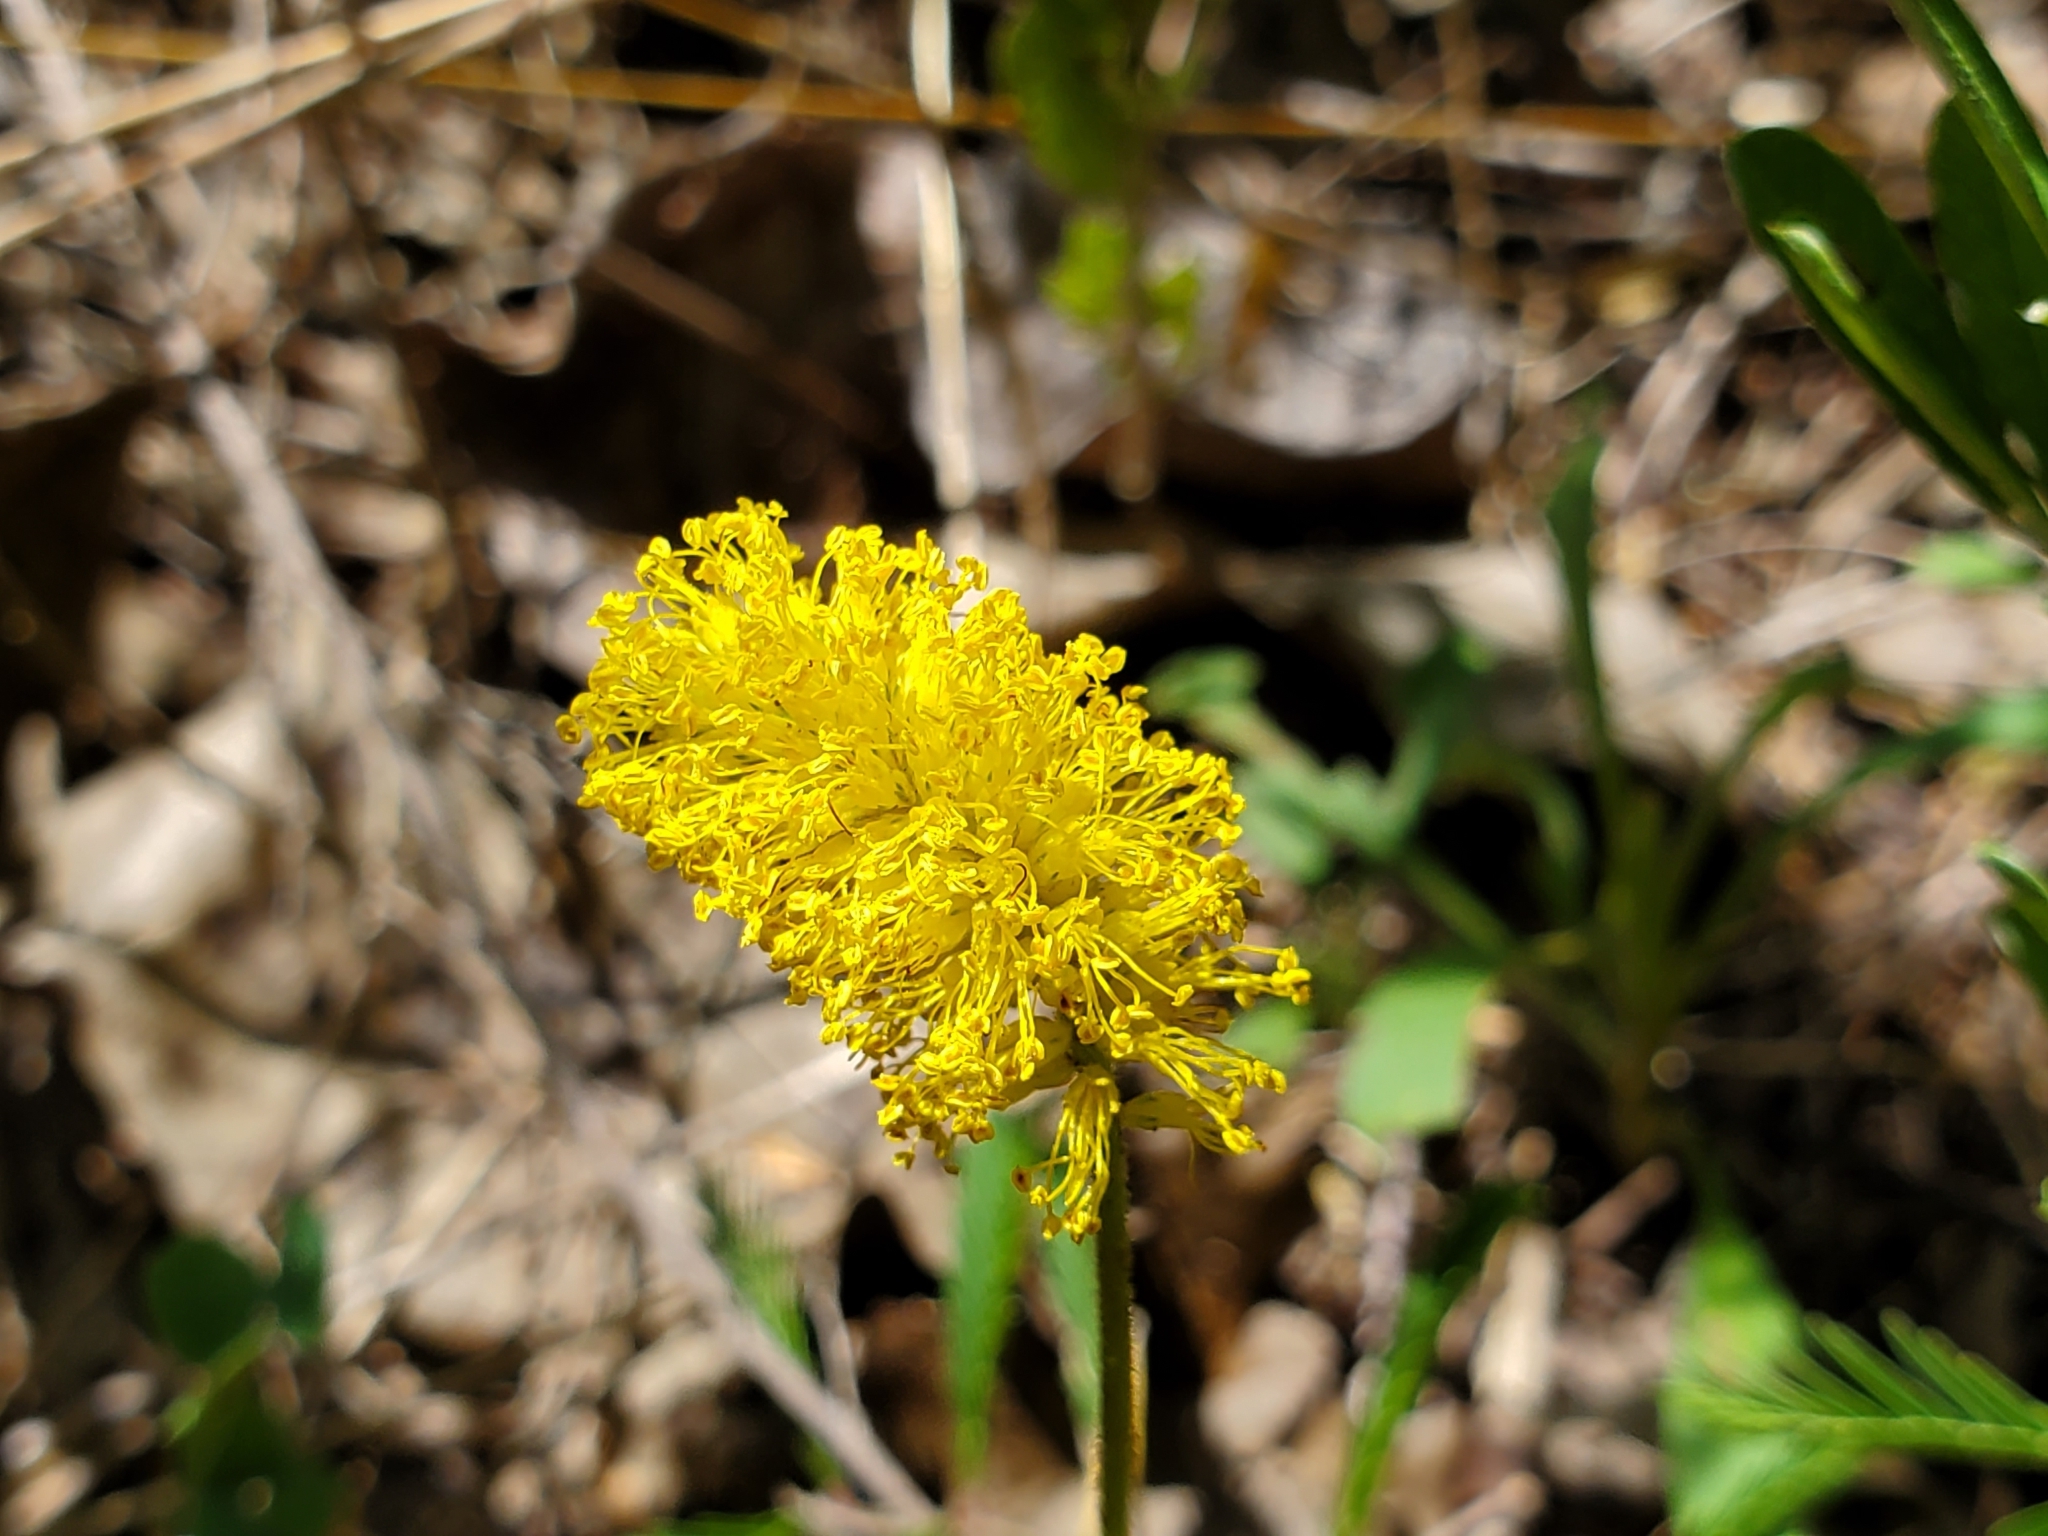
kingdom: Plantae
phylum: Tracheophyta
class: Magnoliopsida
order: Fabales
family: Fabaceae
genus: Neptunia
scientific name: Neptunia lutea
